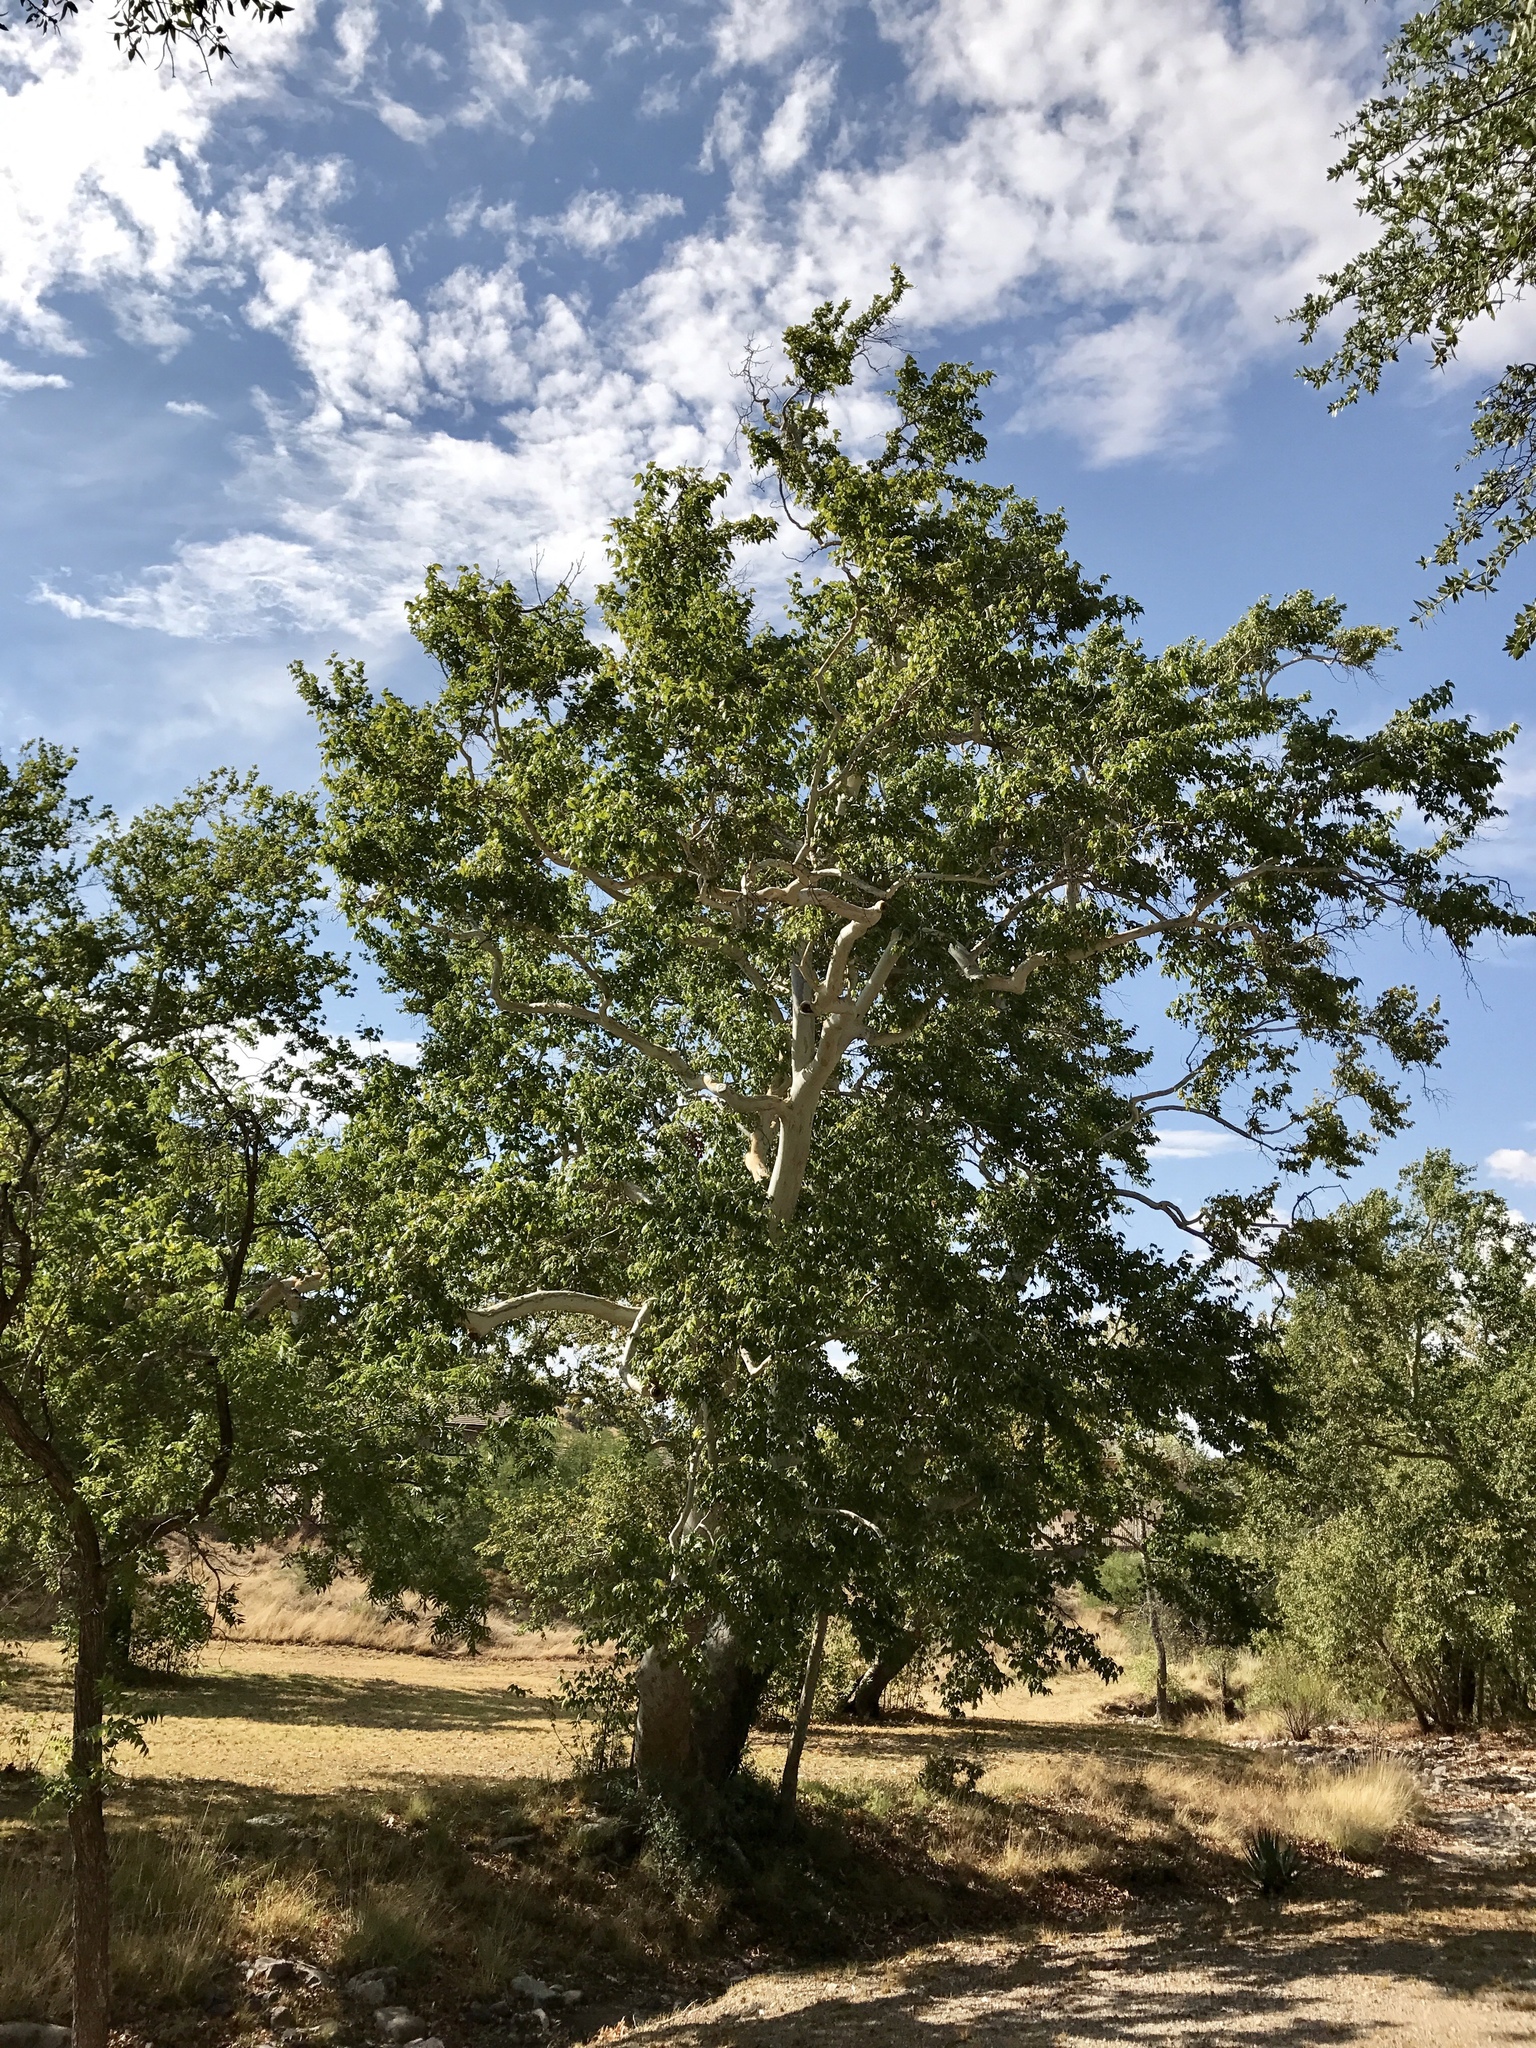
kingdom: Plantae
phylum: Tracheophyta
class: Magnoliopsida
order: Proteales
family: Platanaceae
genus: Platanus
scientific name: Platanus wrightii
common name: Arizona sycamore
